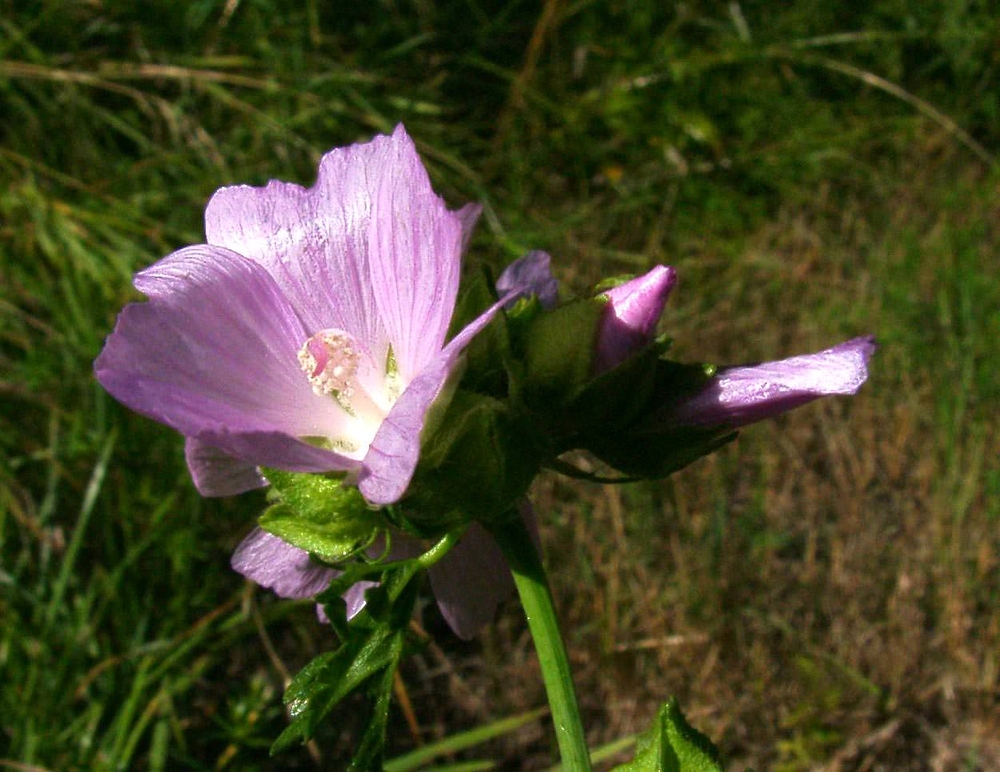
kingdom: Plantae
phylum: Tracheophyta
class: Magnoliopsida
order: Malvales
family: Malvaceae
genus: Malva
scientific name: Malva moschata
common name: Musk mallow
